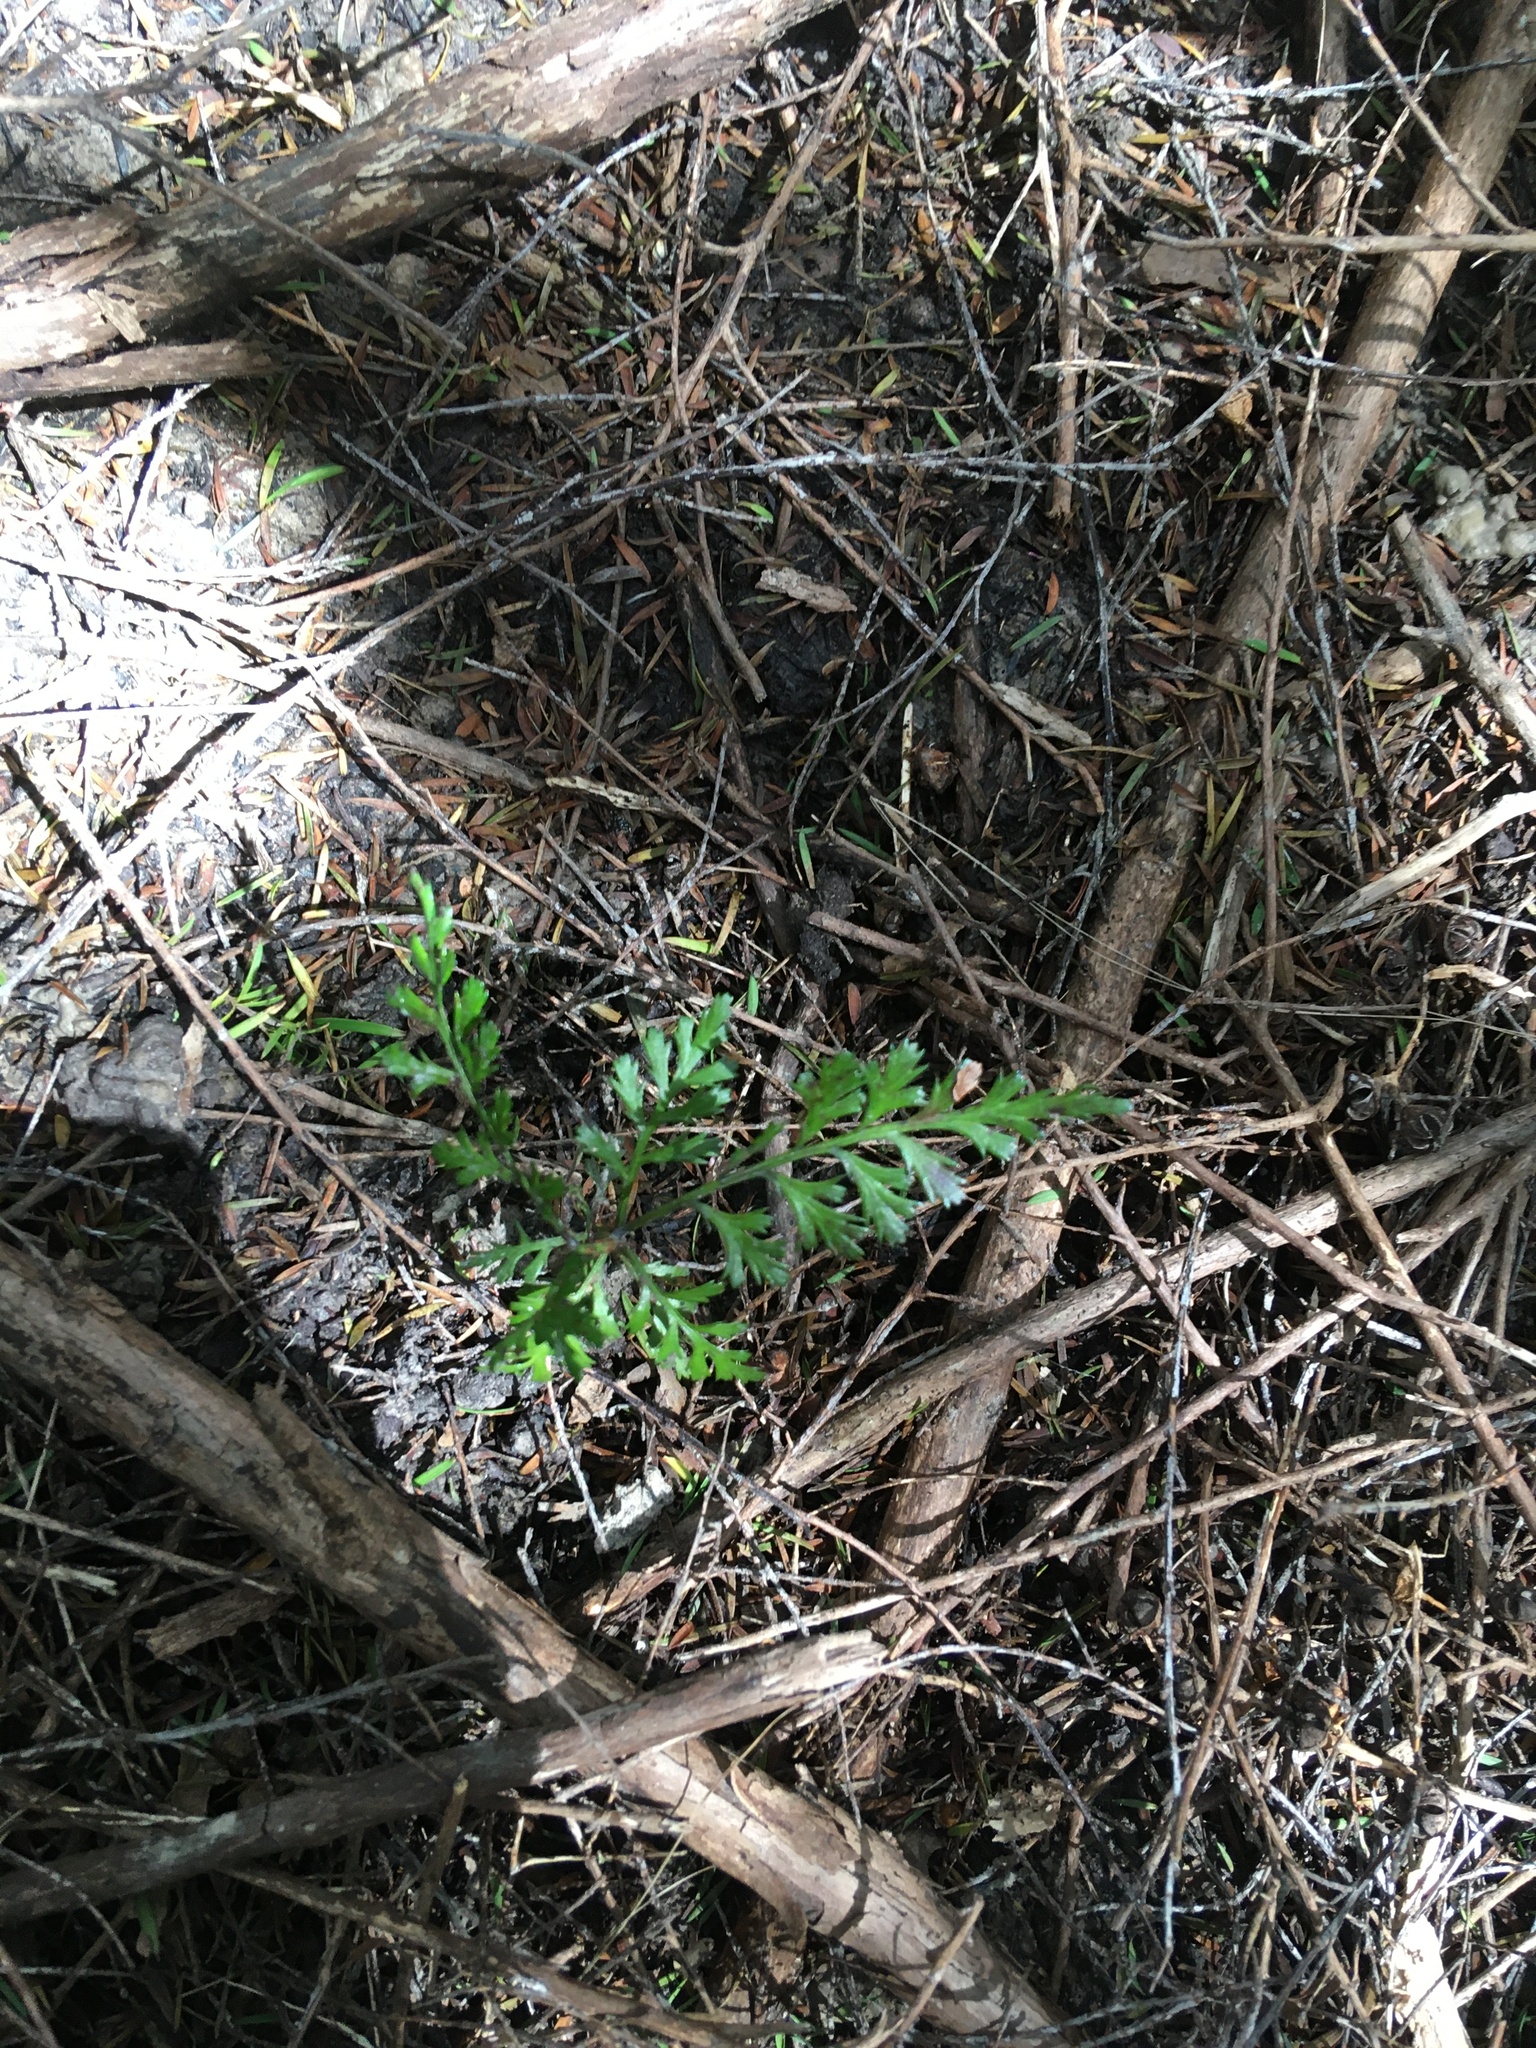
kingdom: Plantae
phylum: Tracheophyta
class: Pinopsida
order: Pinales
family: Phyllocladaceae
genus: Phyllocladus
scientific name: Phyllocladus trichomanoides
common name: Celery pine
